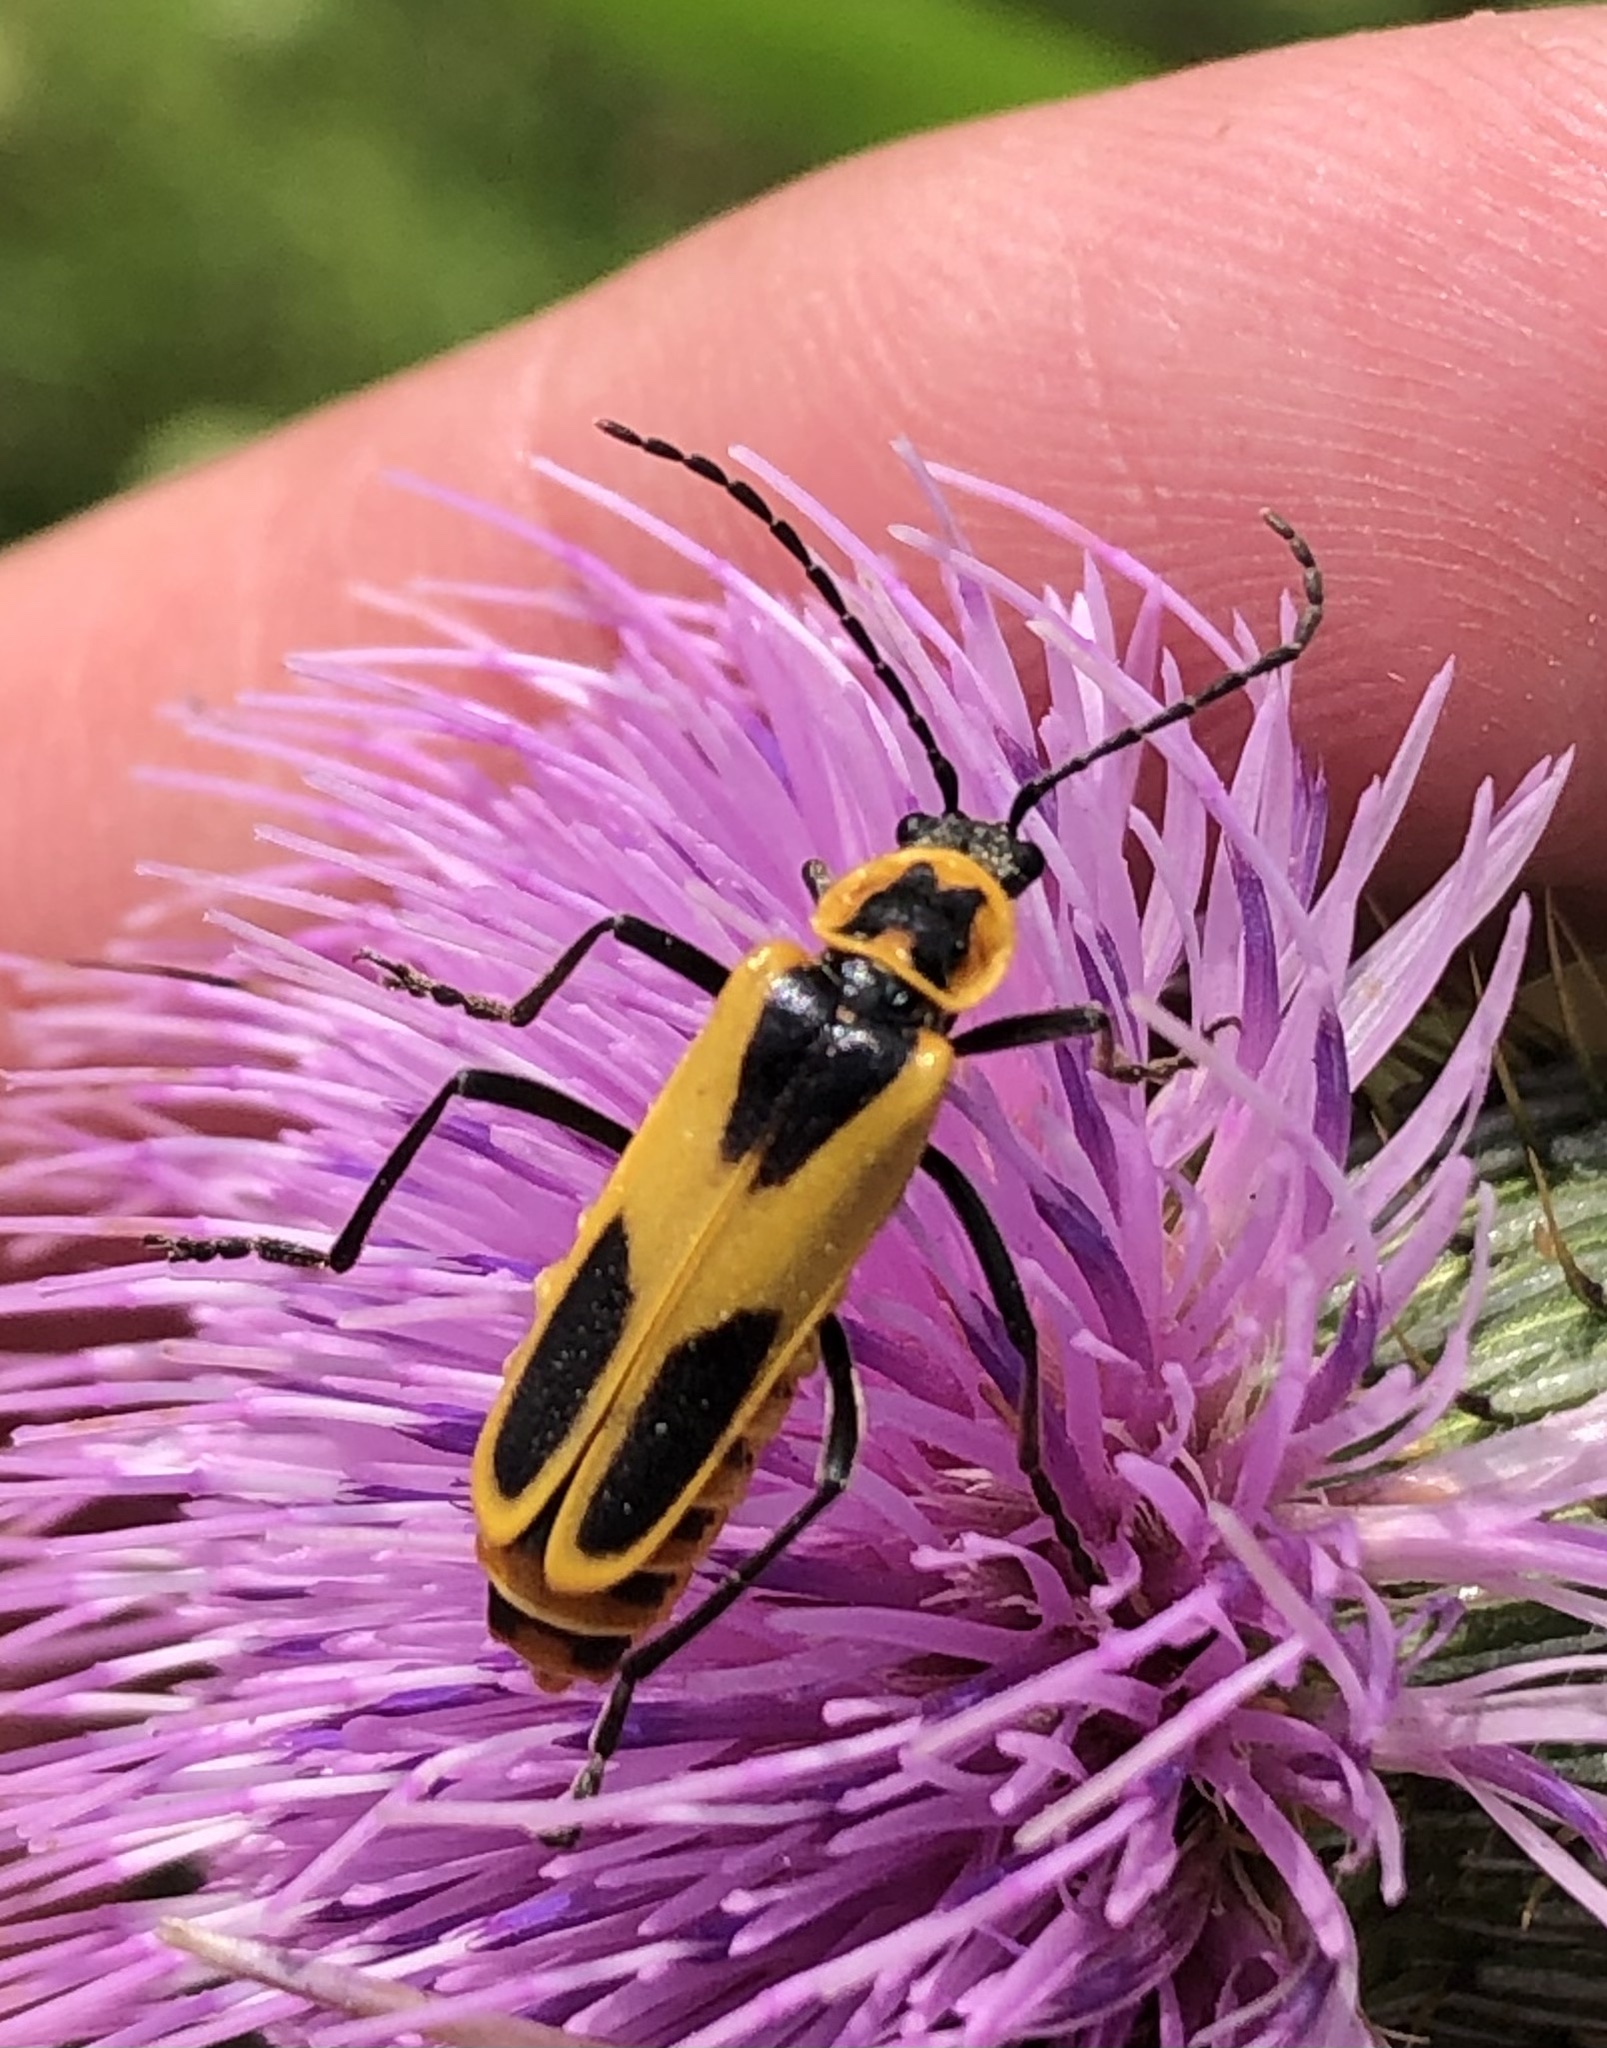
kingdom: Animalia
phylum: Arthropoda
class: Insecta
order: Coleoptera
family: Cantharidae
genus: Chauliognathus
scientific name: Chauliognathus scutellaris
